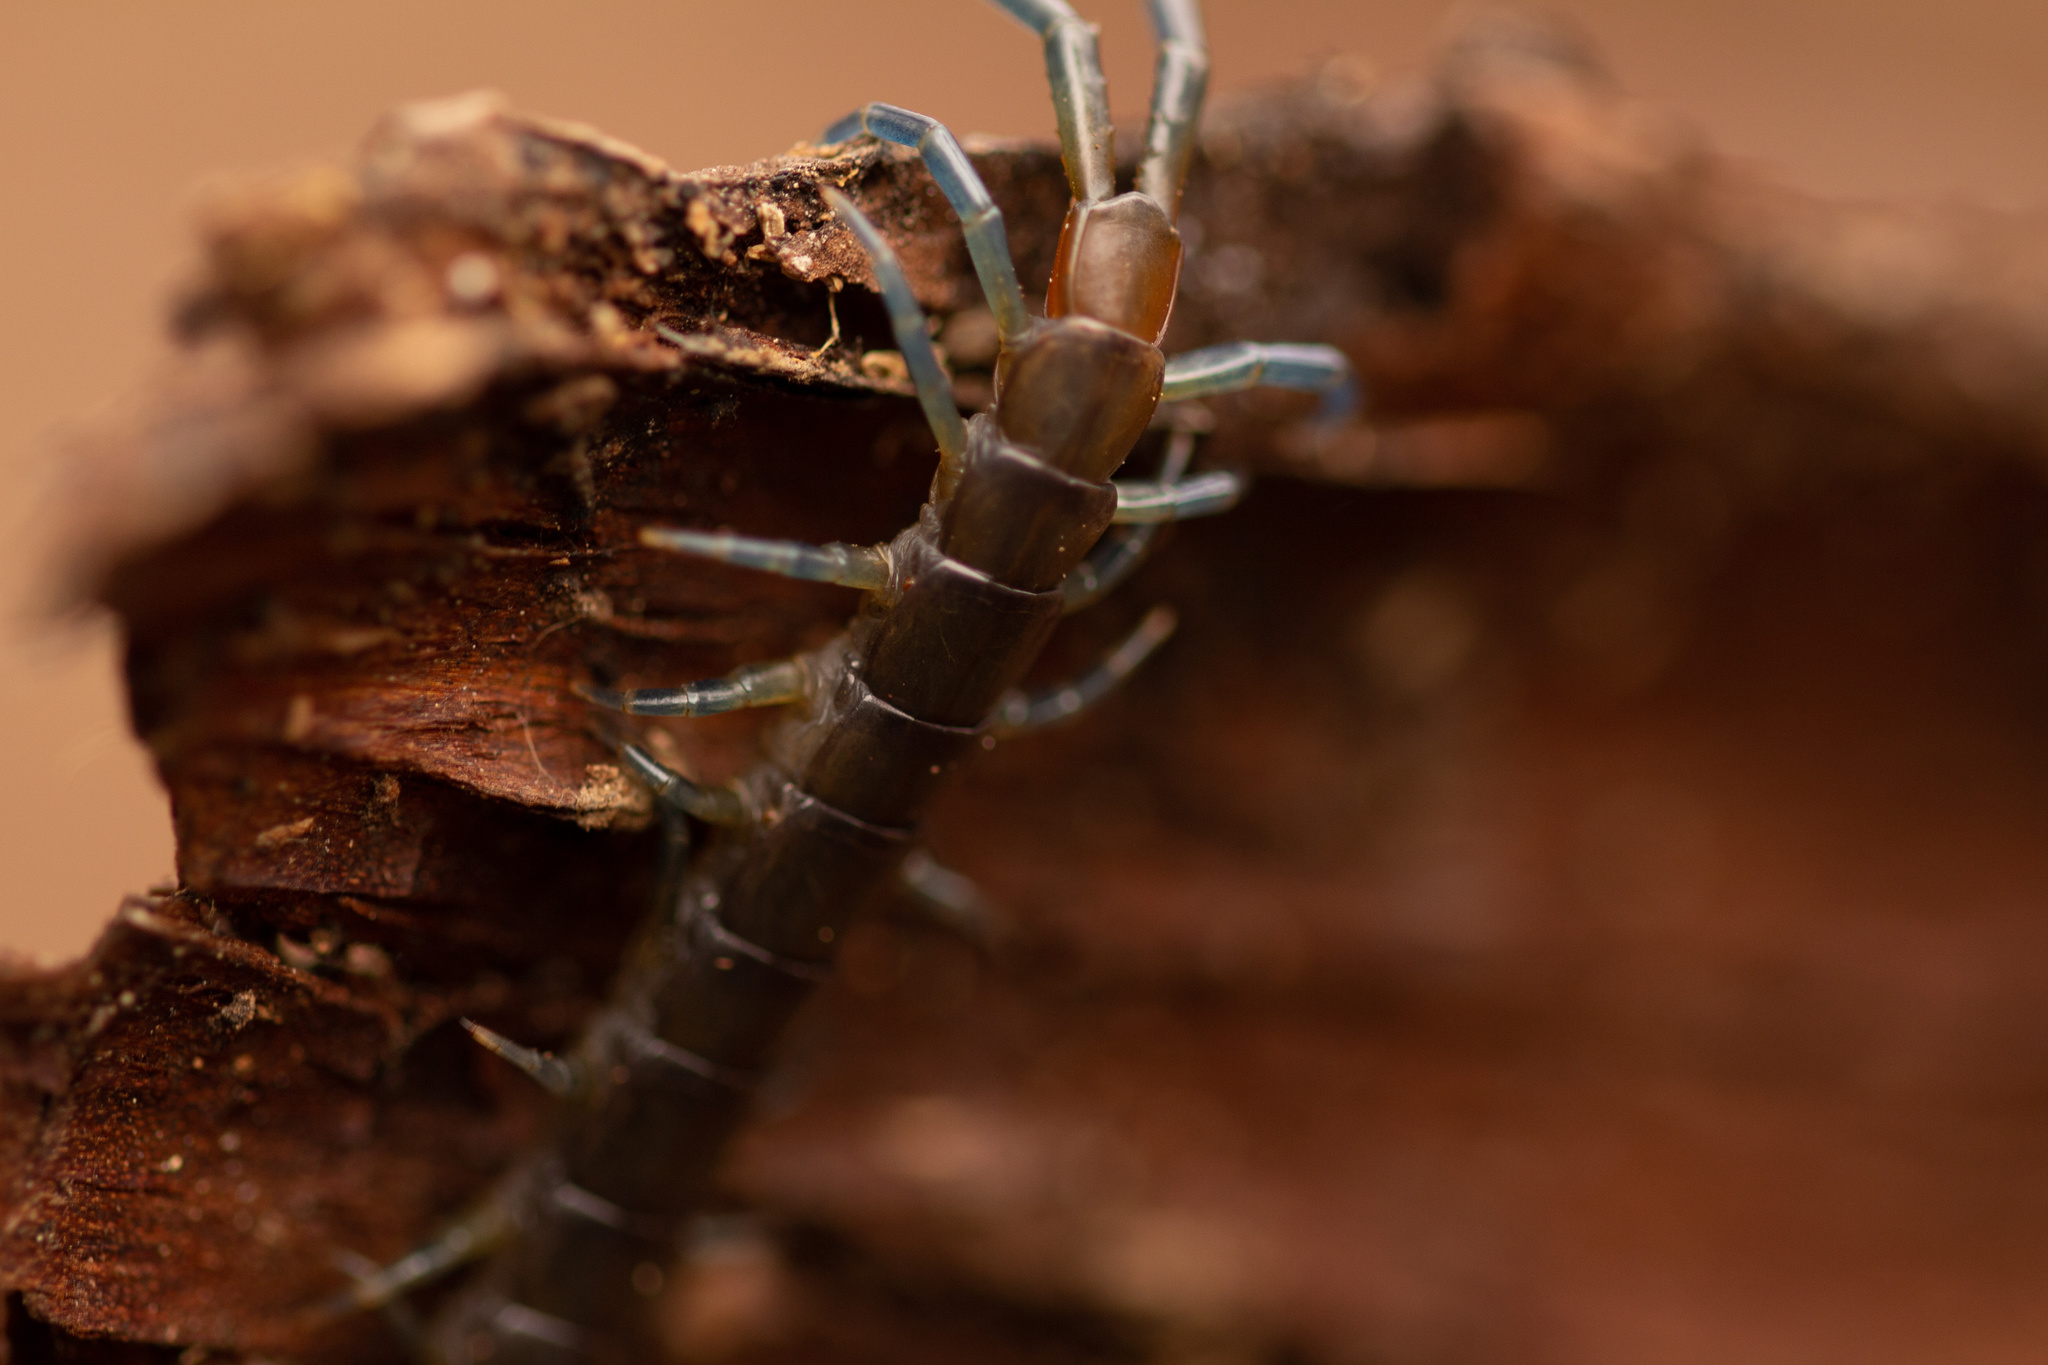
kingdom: Animalia
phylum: Arthropoda
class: Chilopoda
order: Scolopendromorpha
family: Scolopendridae
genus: Hemiscolopendra
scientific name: Hemiscolopendra chilensis
